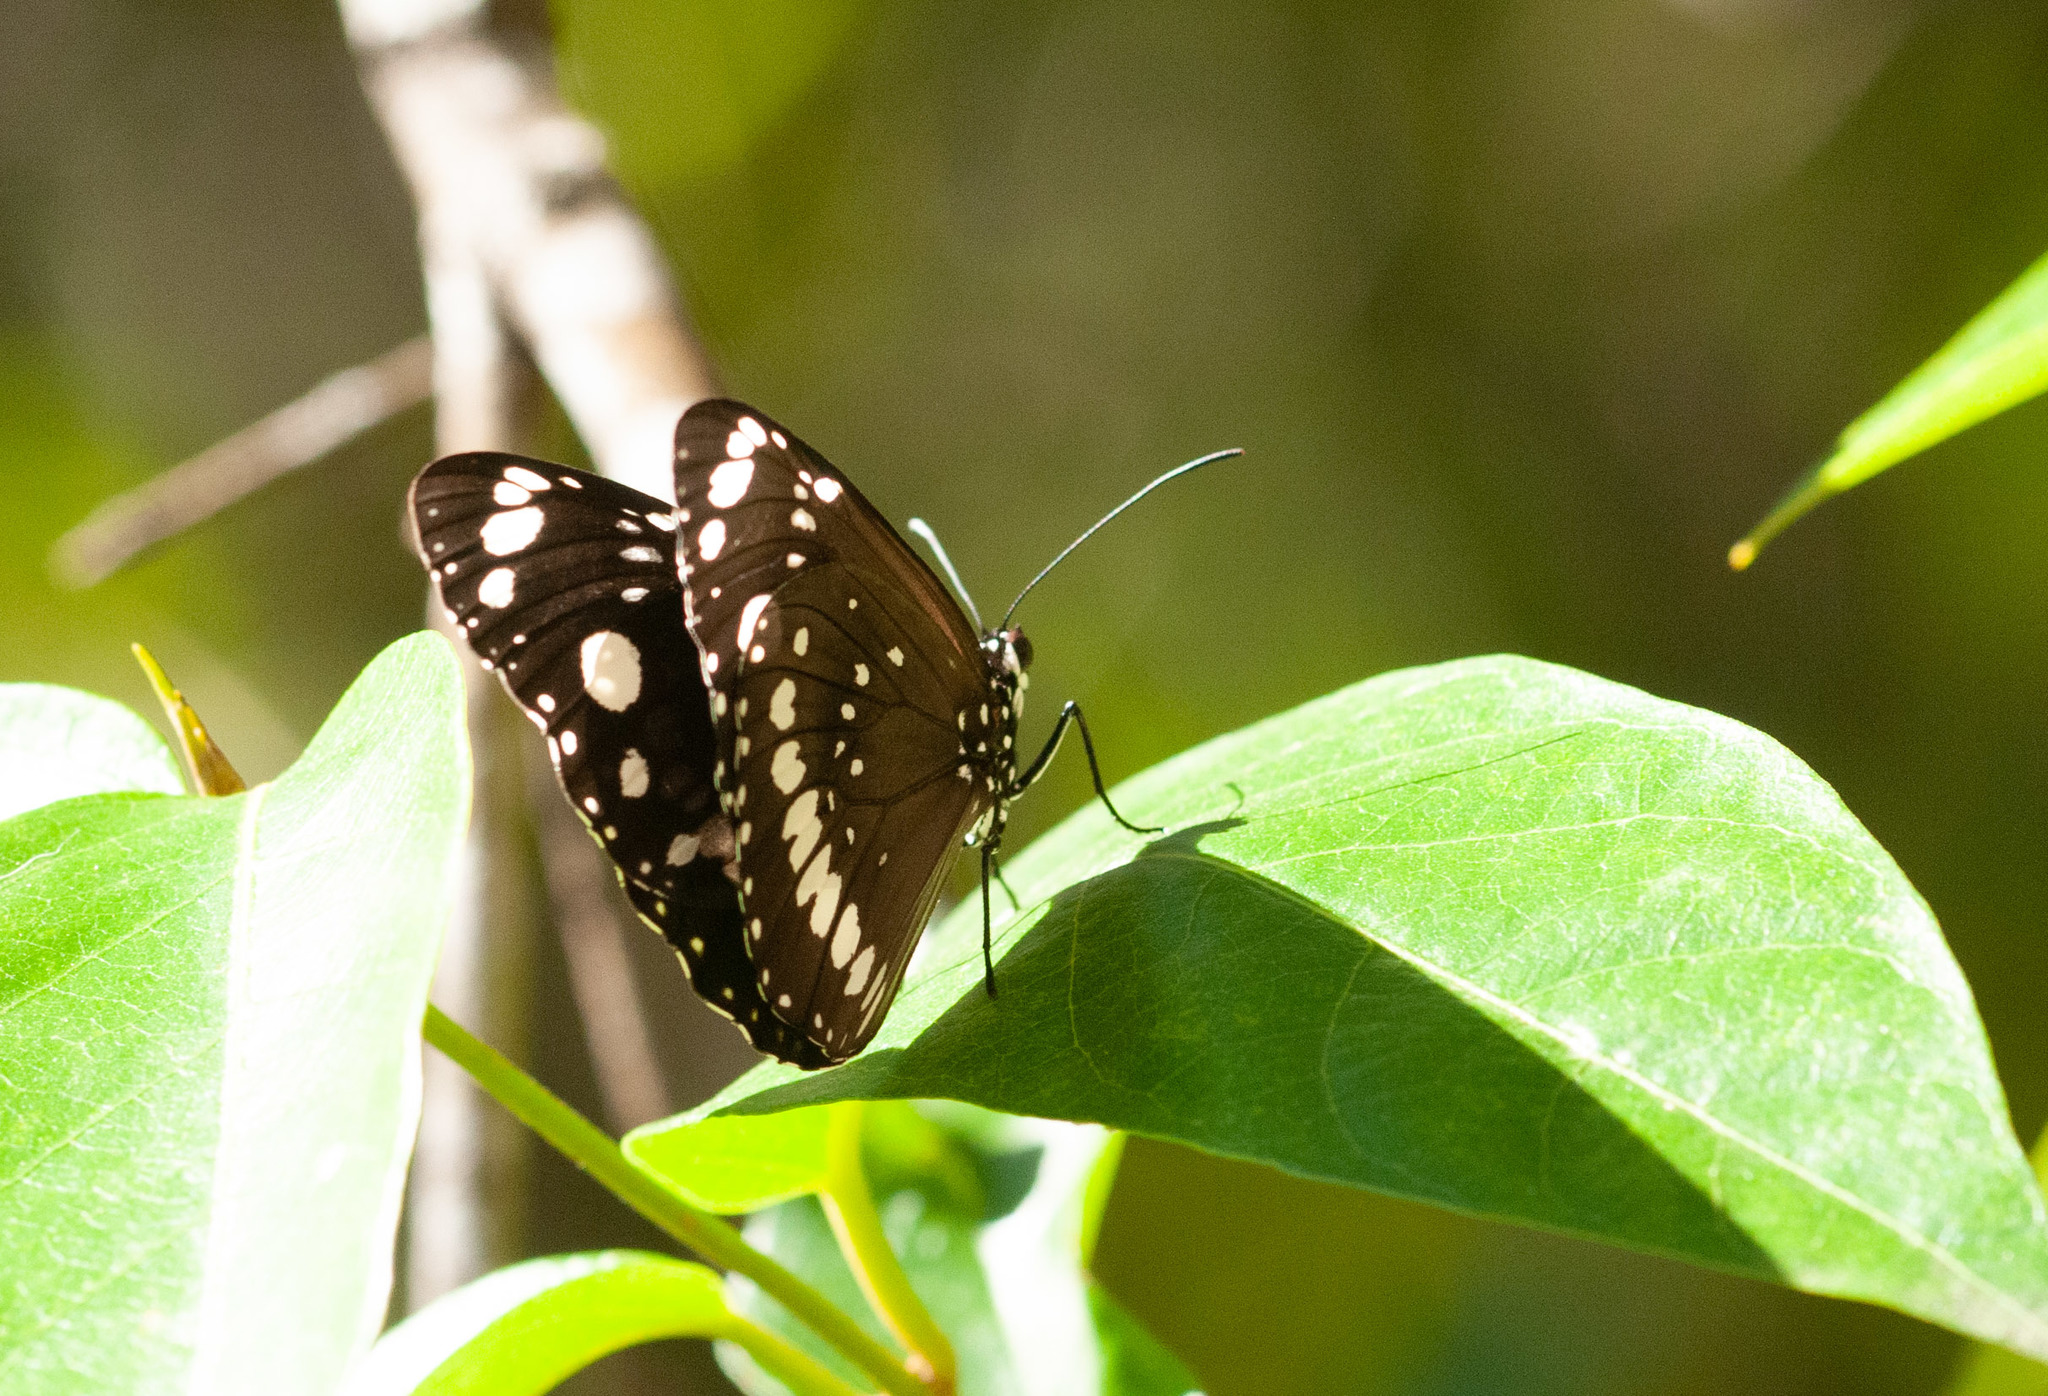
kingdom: Animalia
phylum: Arthropoda
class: Insecta
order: Lepidoptera
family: Nymphalidae
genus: Euploea
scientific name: Euploea core
